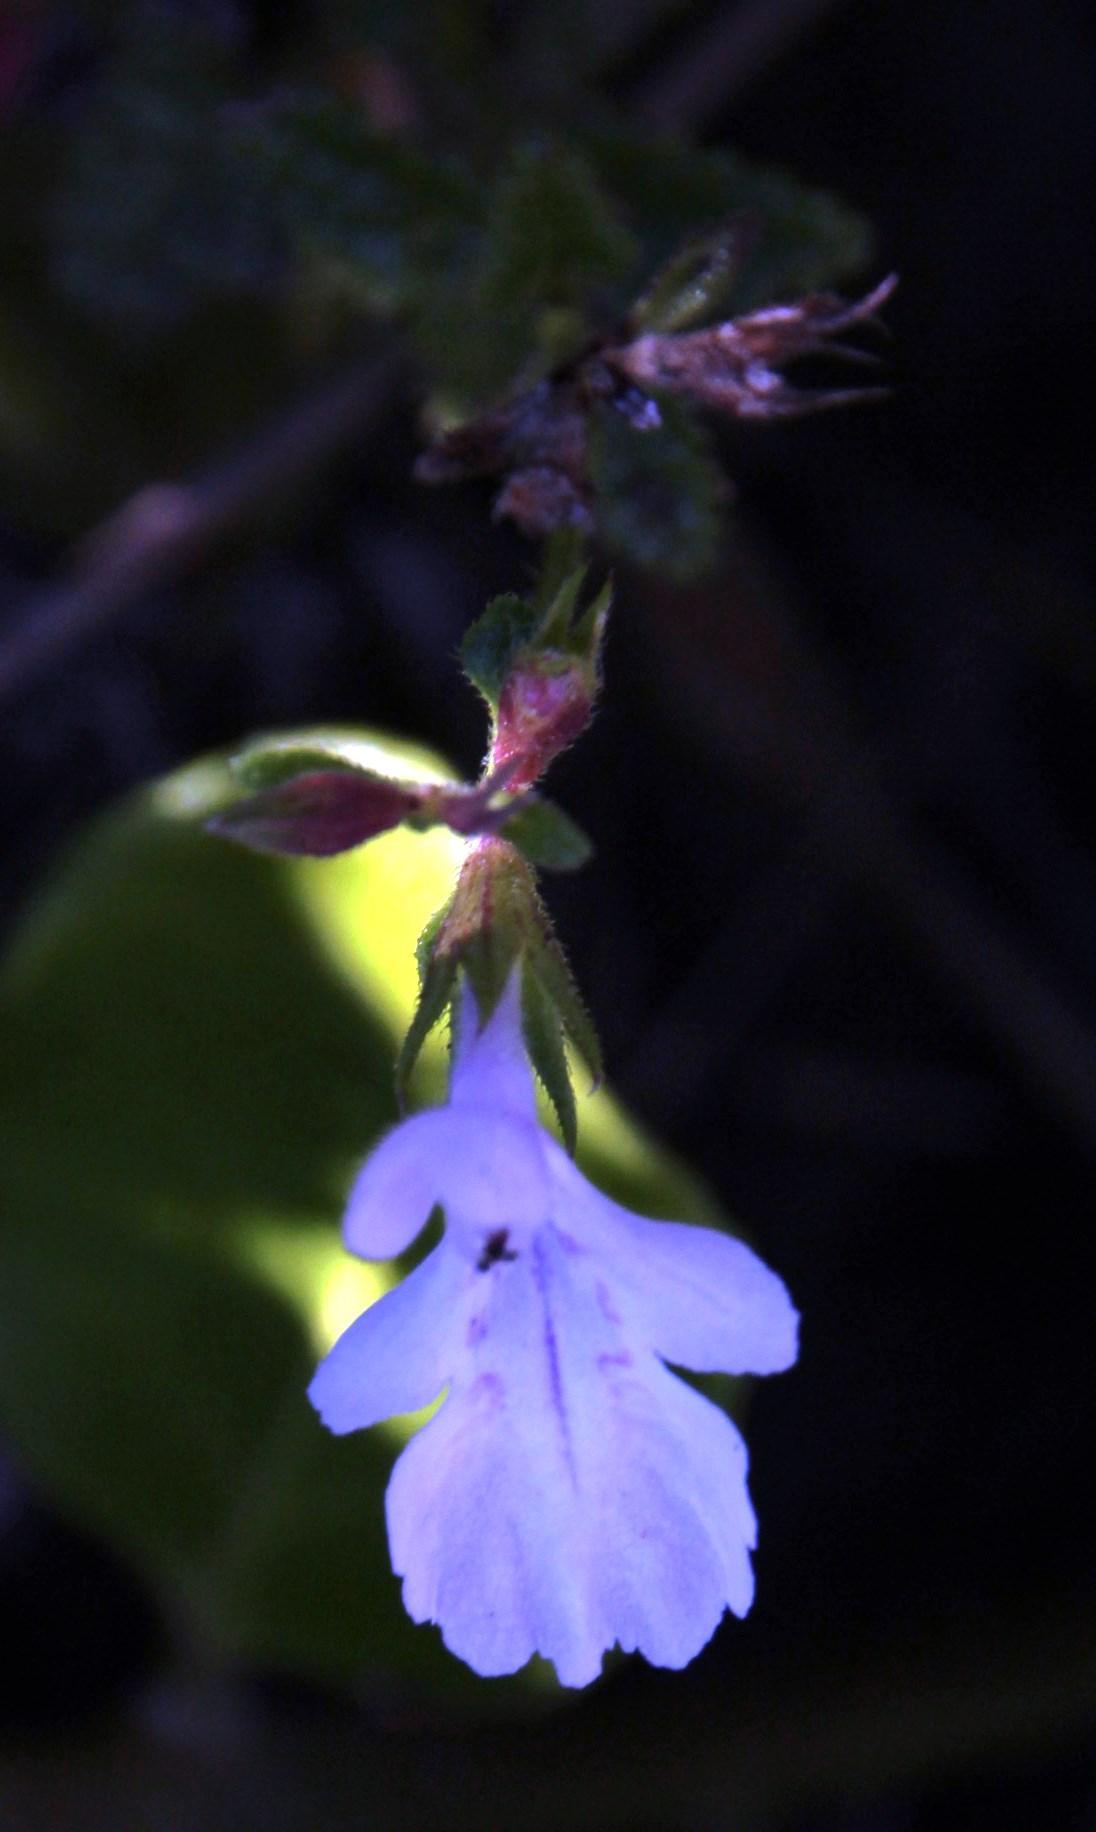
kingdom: Plantae
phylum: Tracheophyta
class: Magnoliopsida
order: Lamiales
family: Lamiaceae
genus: Stachys
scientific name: Stachys aethiopica
